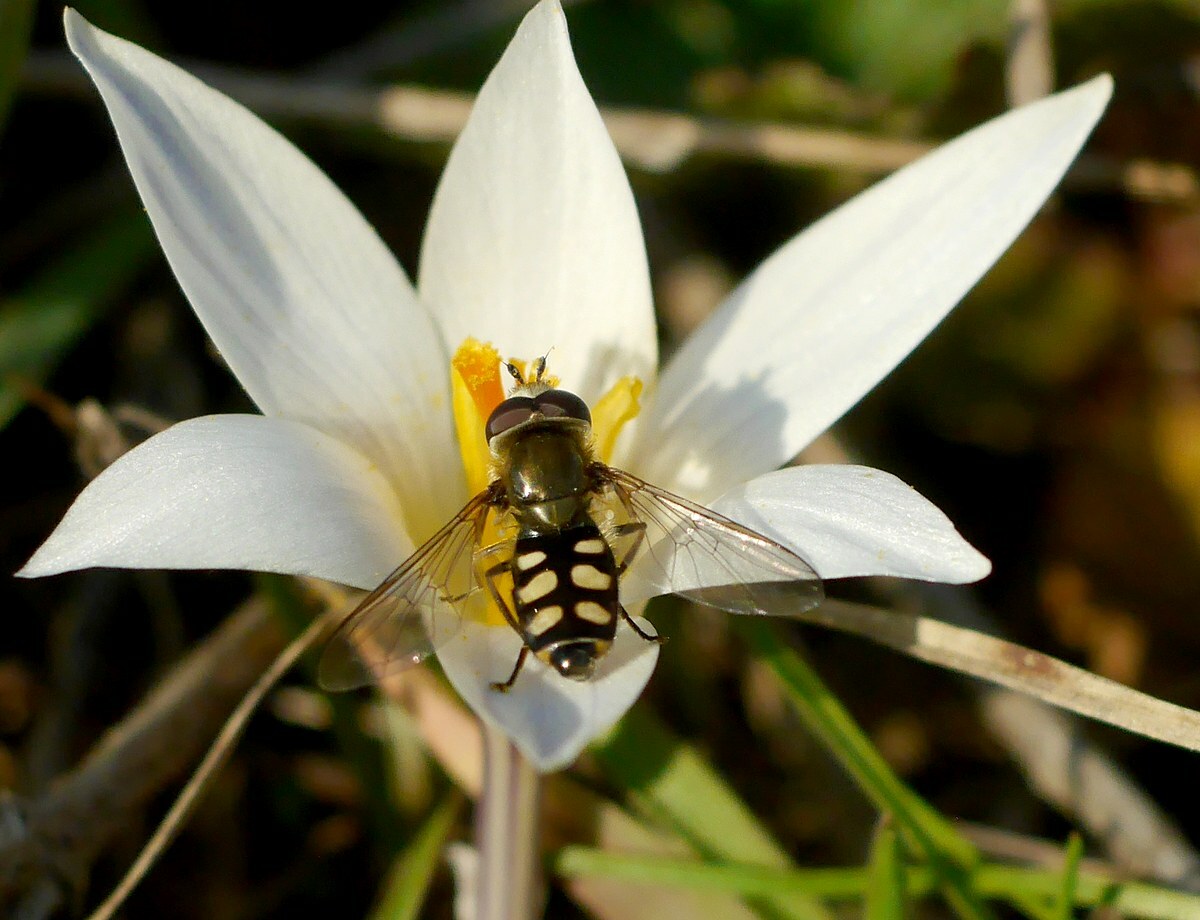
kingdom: Animalia
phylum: Arthropoda
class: Insecta
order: Diptera
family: Syrphidae
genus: Eupeodes
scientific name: Eupeodes corollae
